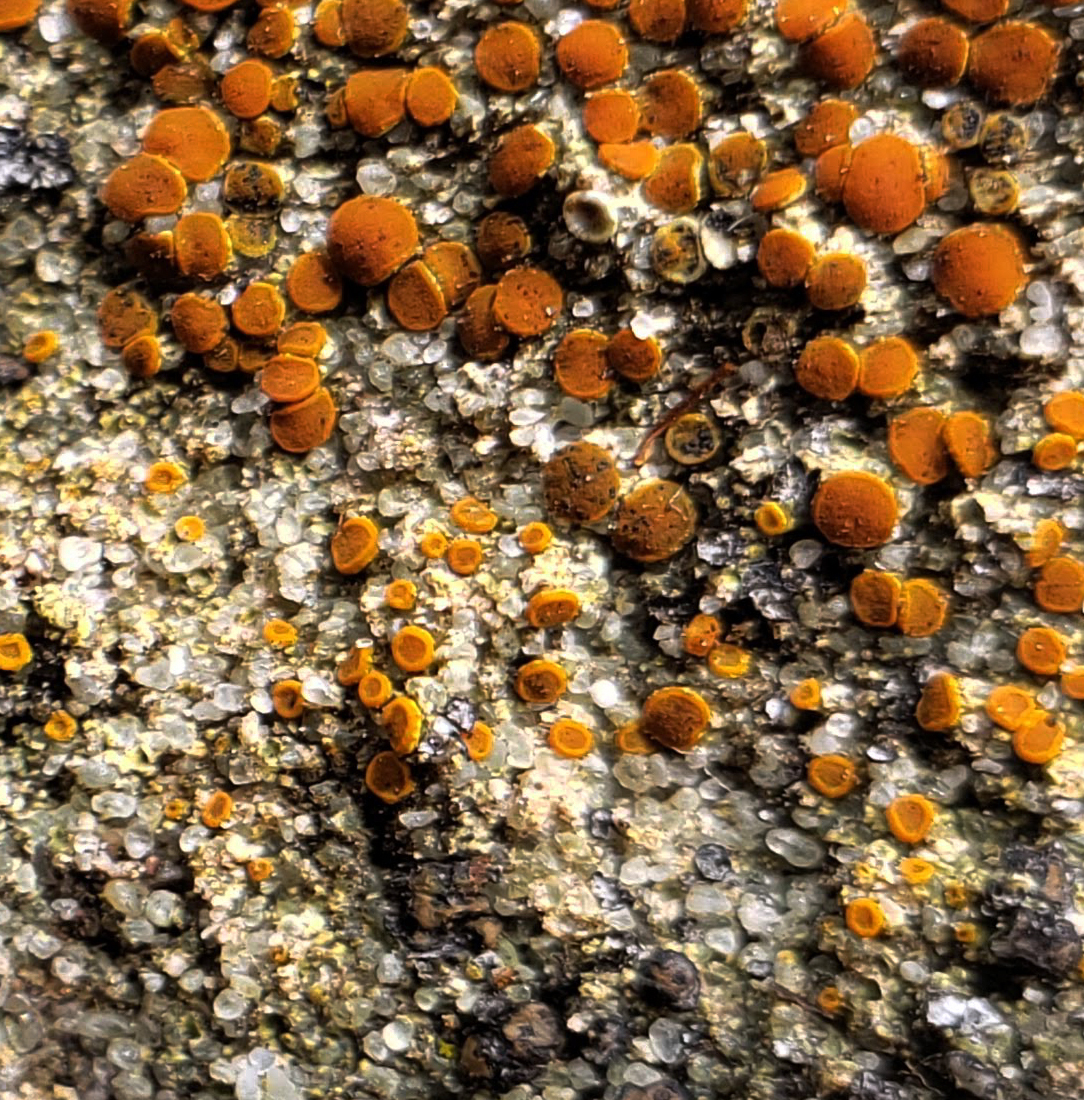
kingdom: Fungi
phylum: Ascomycota
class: Lecanoromycetes
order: Teloschistales
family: Teloschistaceae
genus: Kuettlingeria
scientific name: Kuettlingeria atroflava
